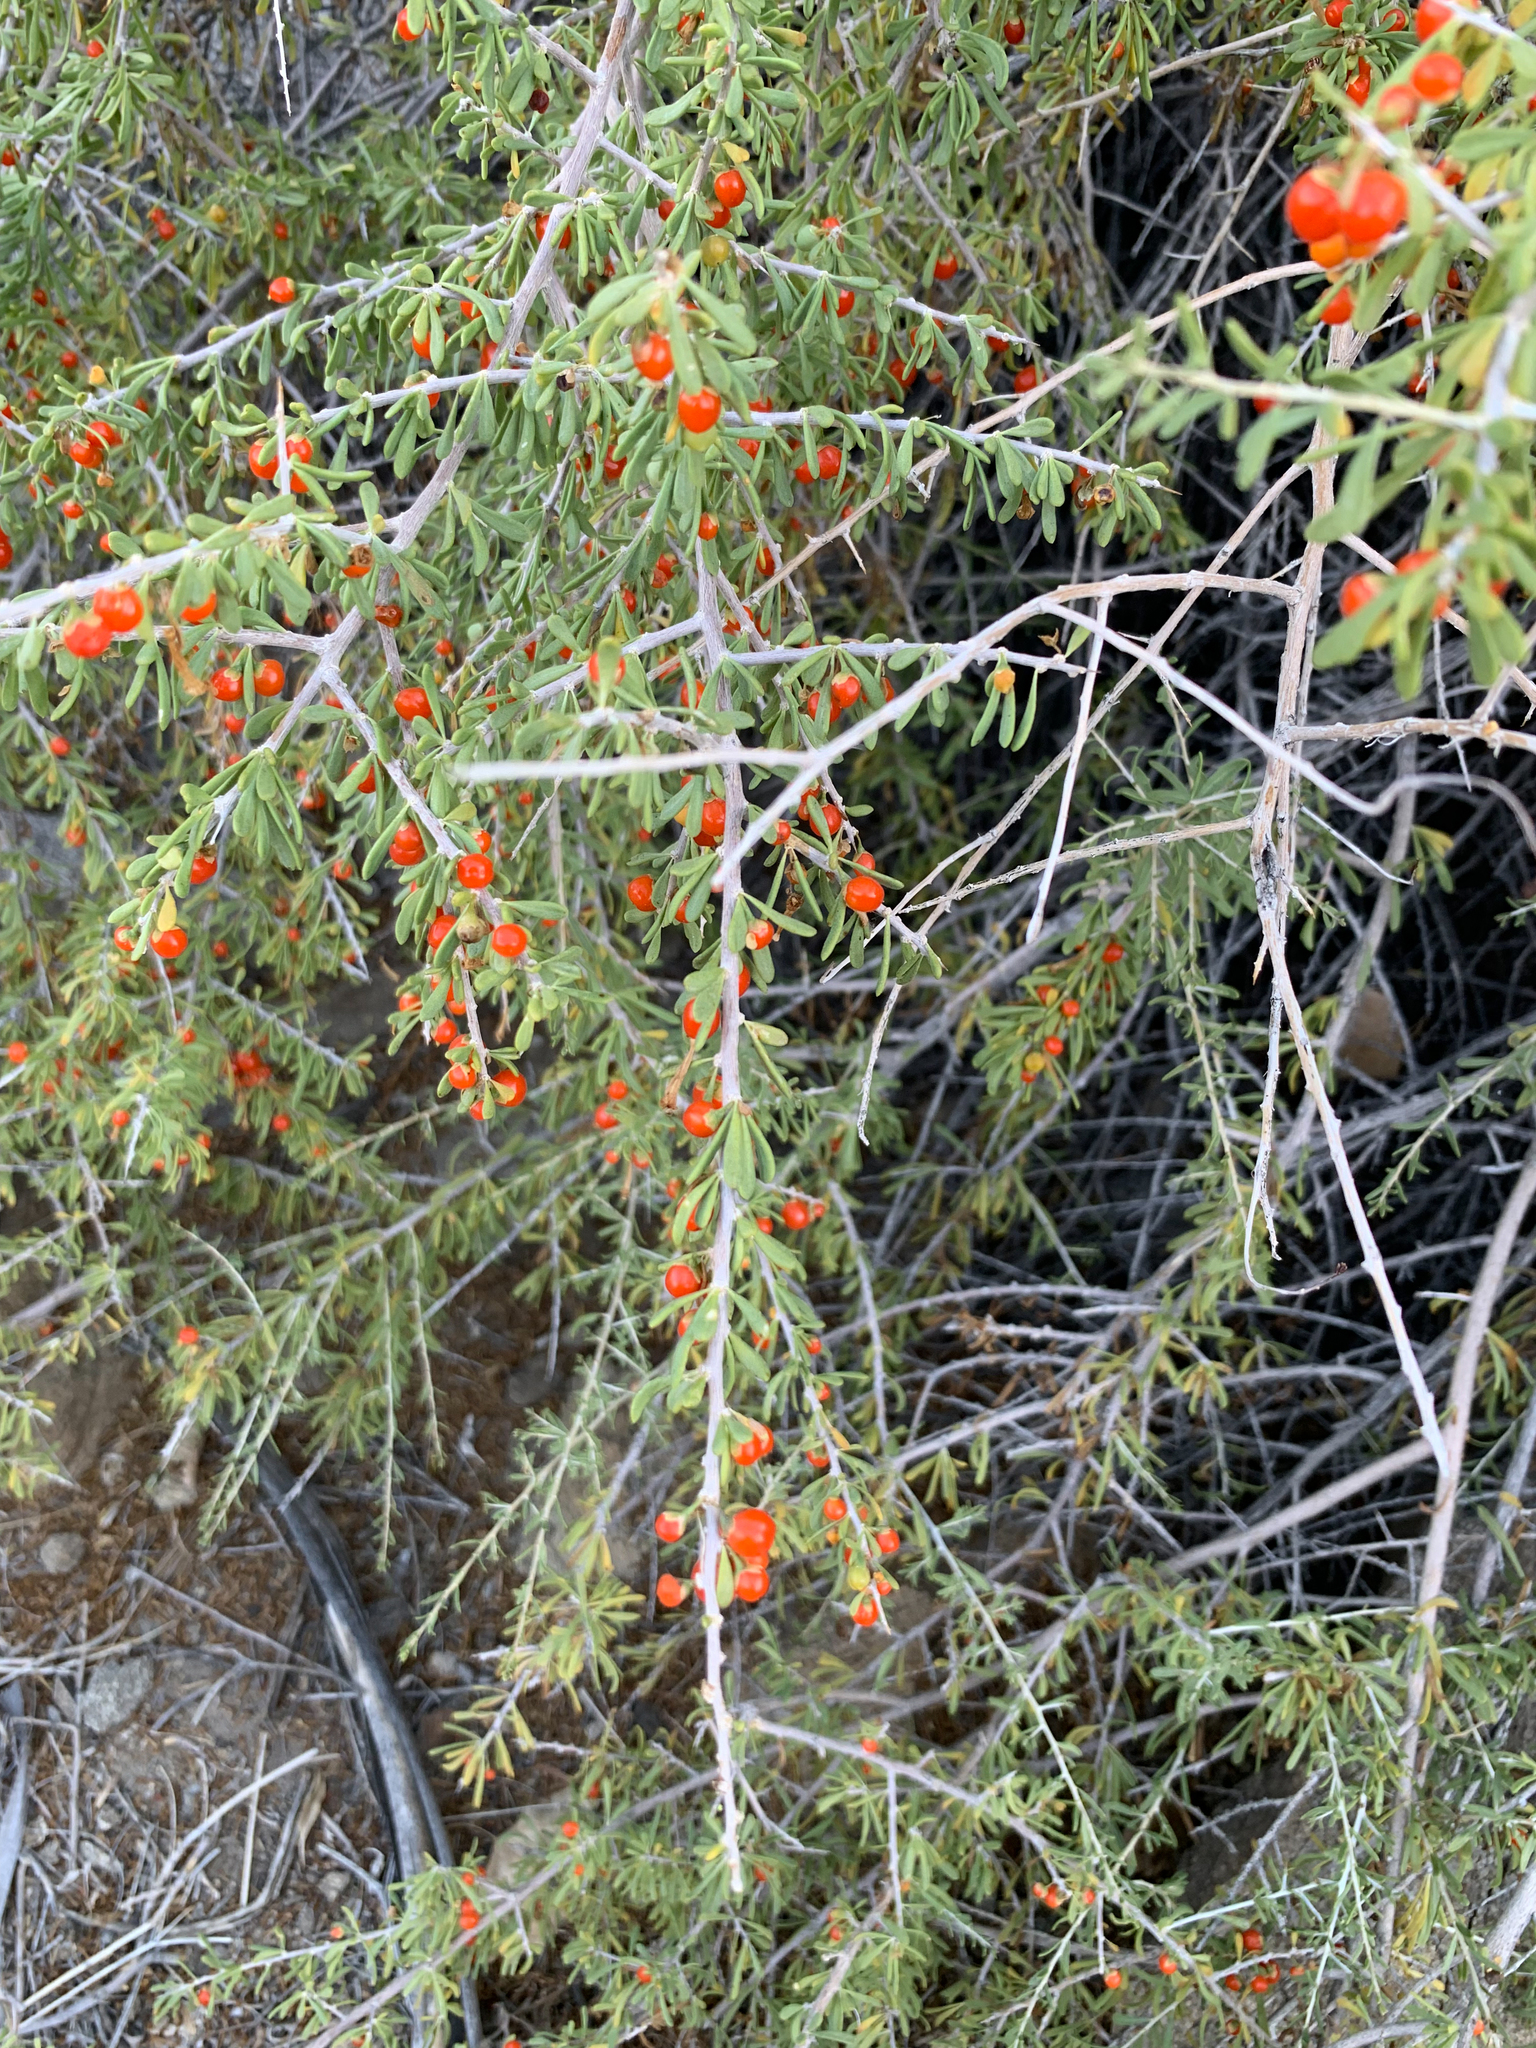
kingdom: Plantae
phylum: Tracheophyta
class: Magnoliopsida
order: Solanales
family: Solanaceae
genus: Lycium
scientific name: Lycium andersonii
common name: Water-jacket
